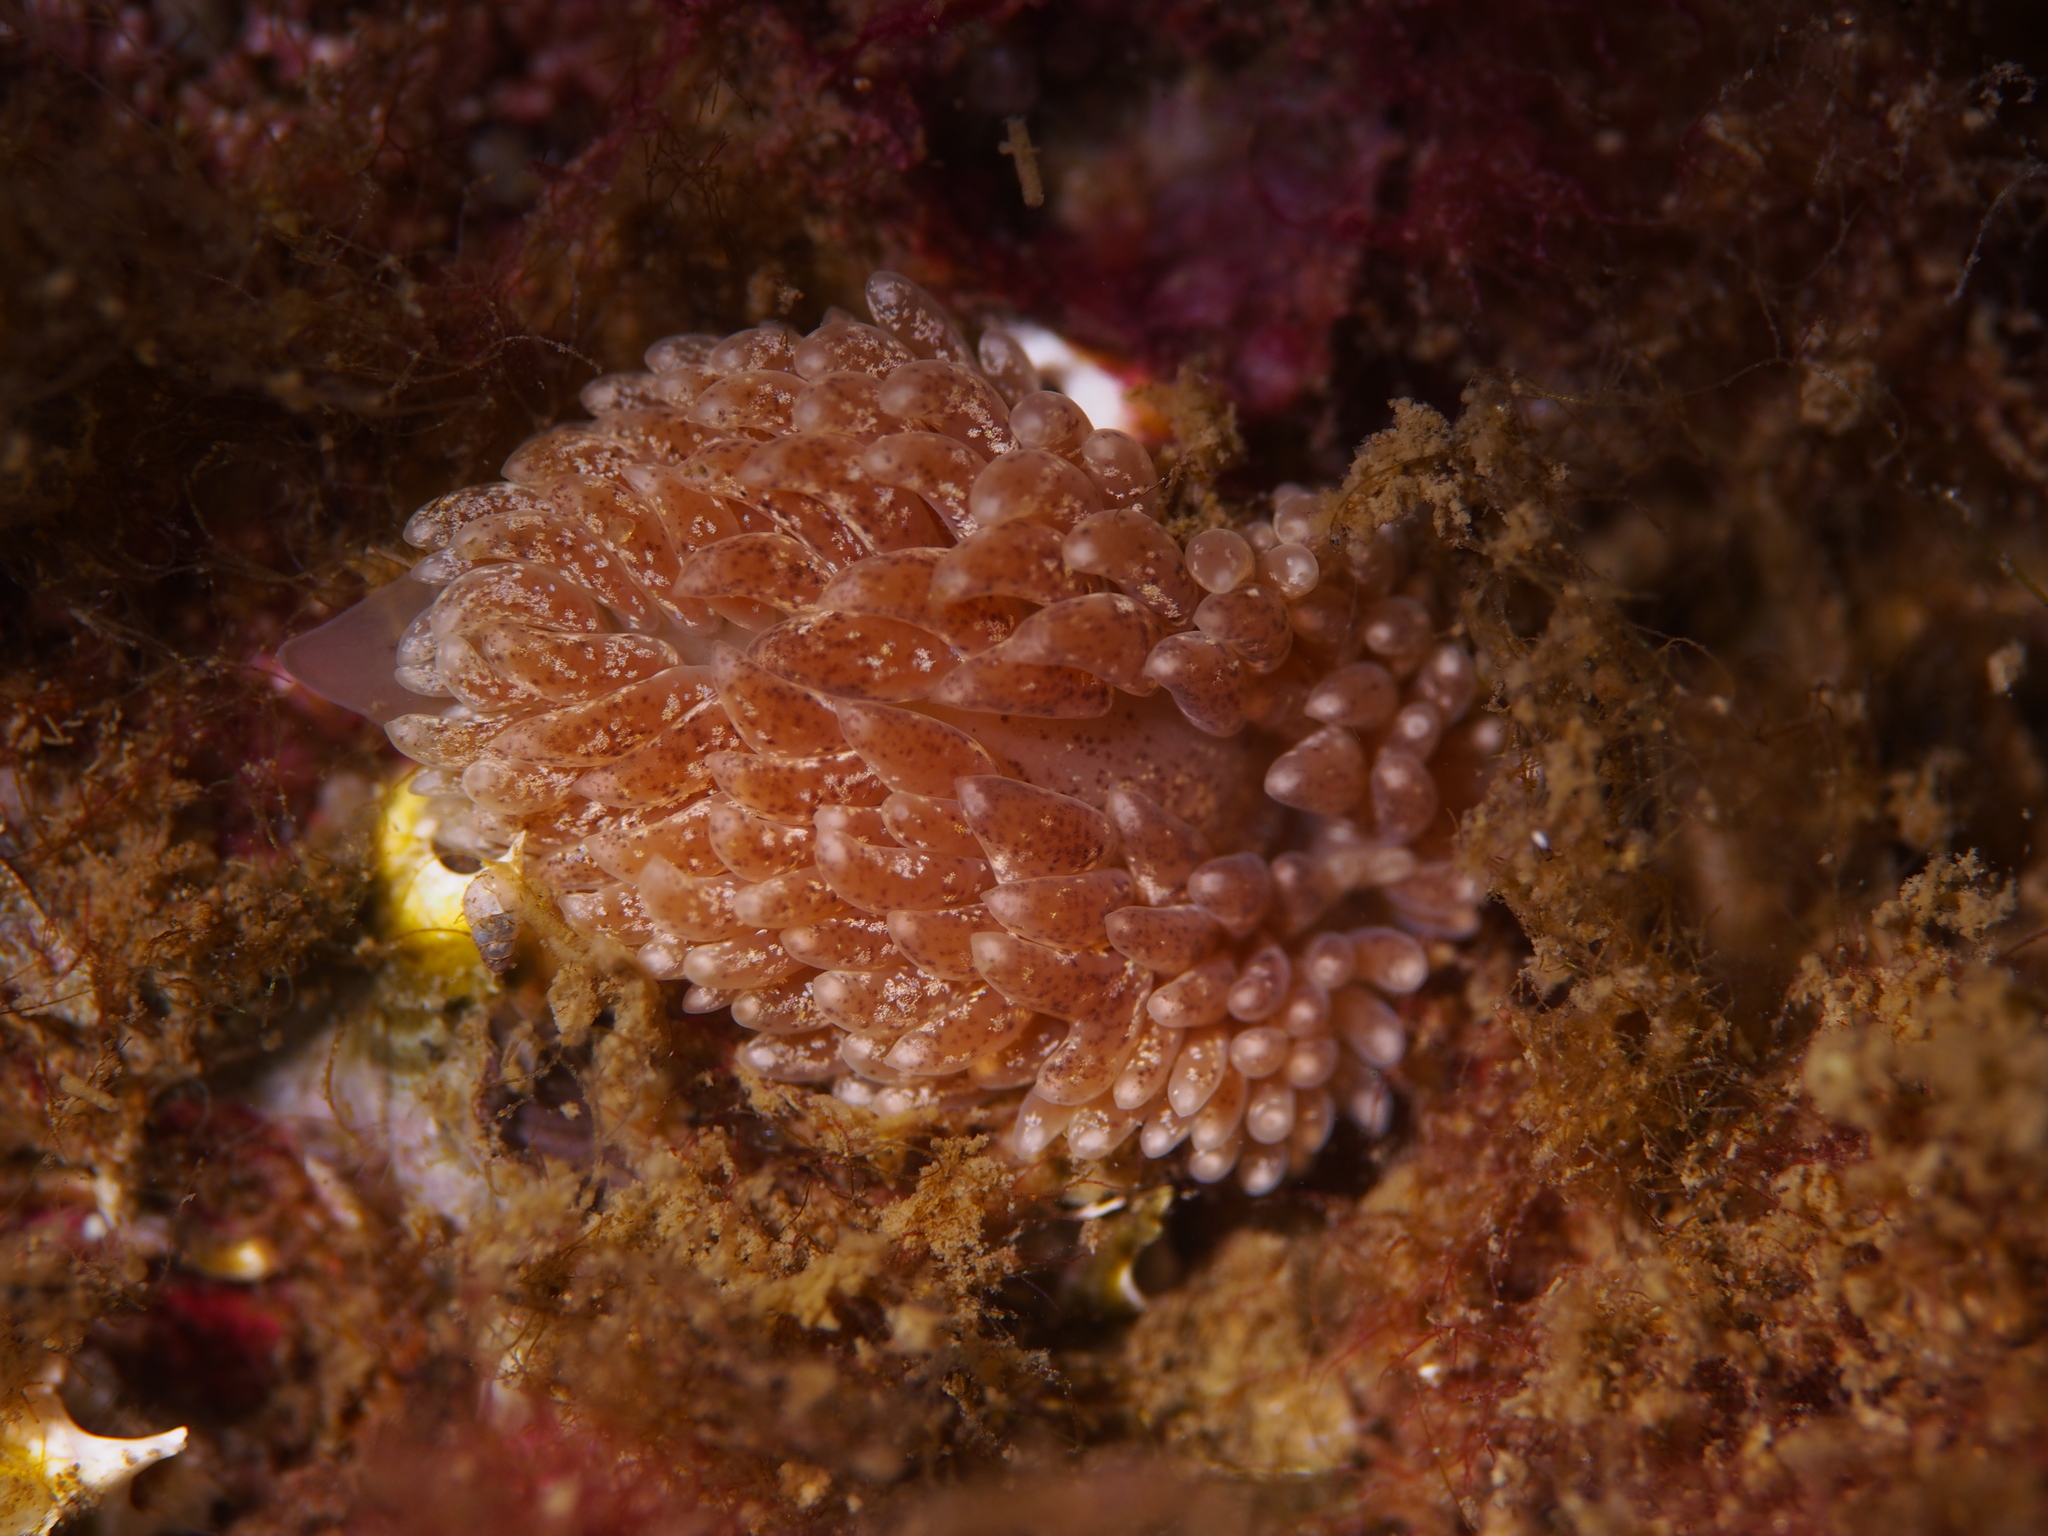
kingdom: Animalia
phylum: Mollusca
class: Gastropoda
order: Nudibranchia
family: Aeolidiidae
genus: Aeolidia
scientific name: Aeolidia papillosa
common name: Common grey sea slug
